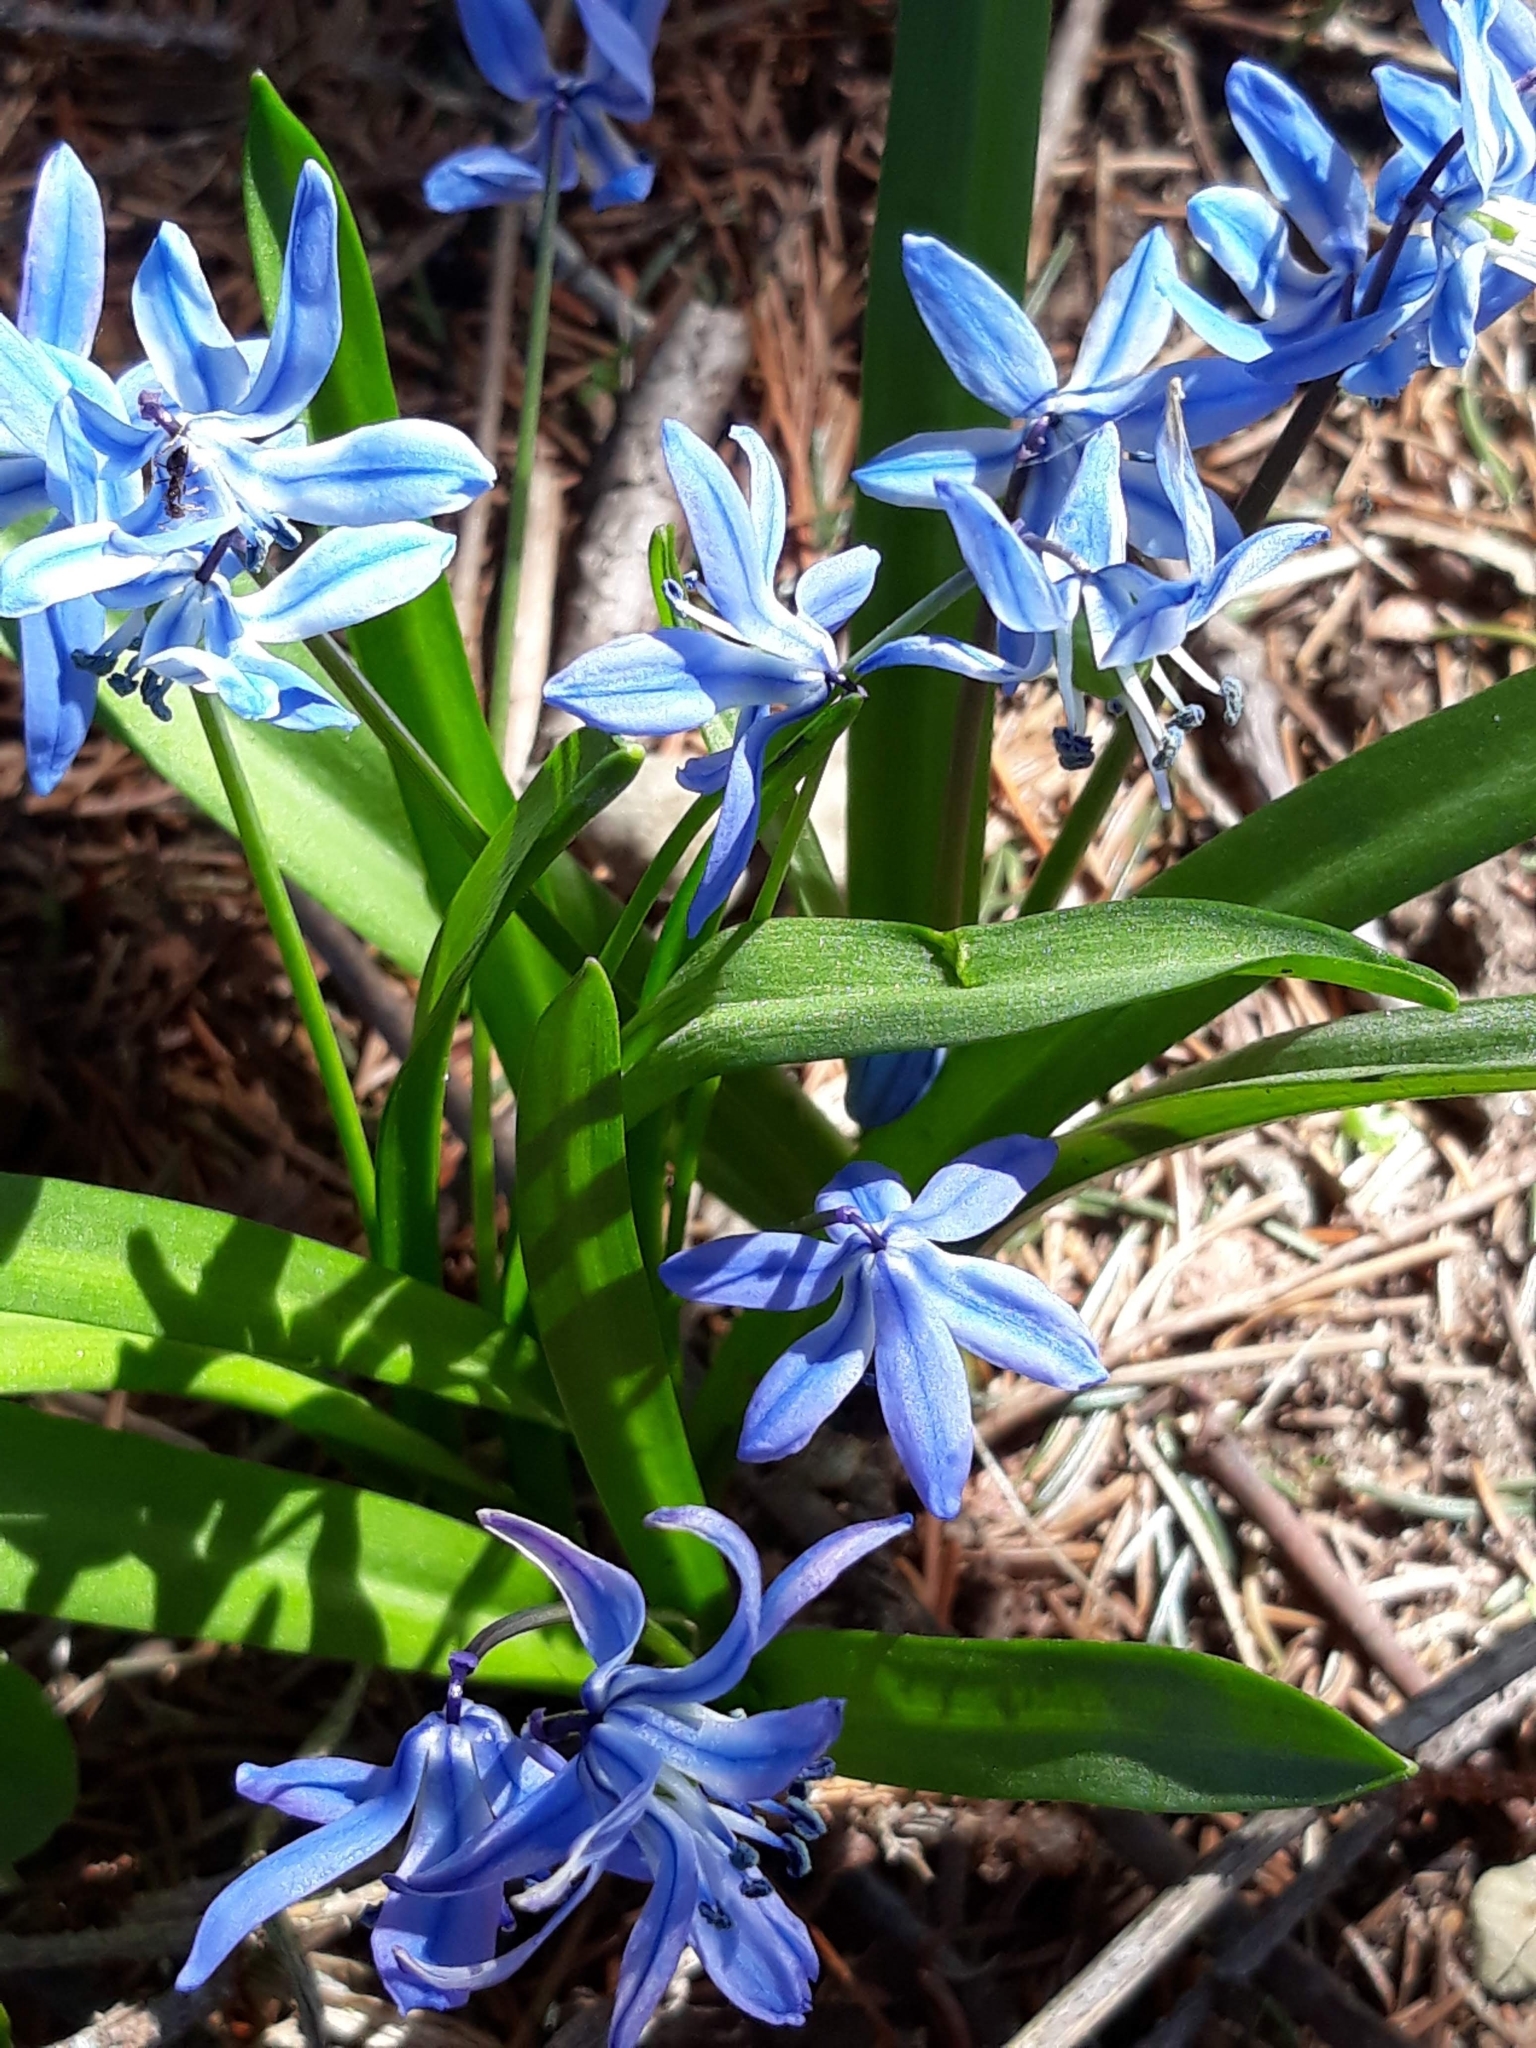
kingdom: Plantae
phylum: Tracheophyta
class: Liliopsida
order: Asparagales
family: Asparagaceae
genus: Scilla
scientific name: Scilla siberica
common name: Siberian squill
